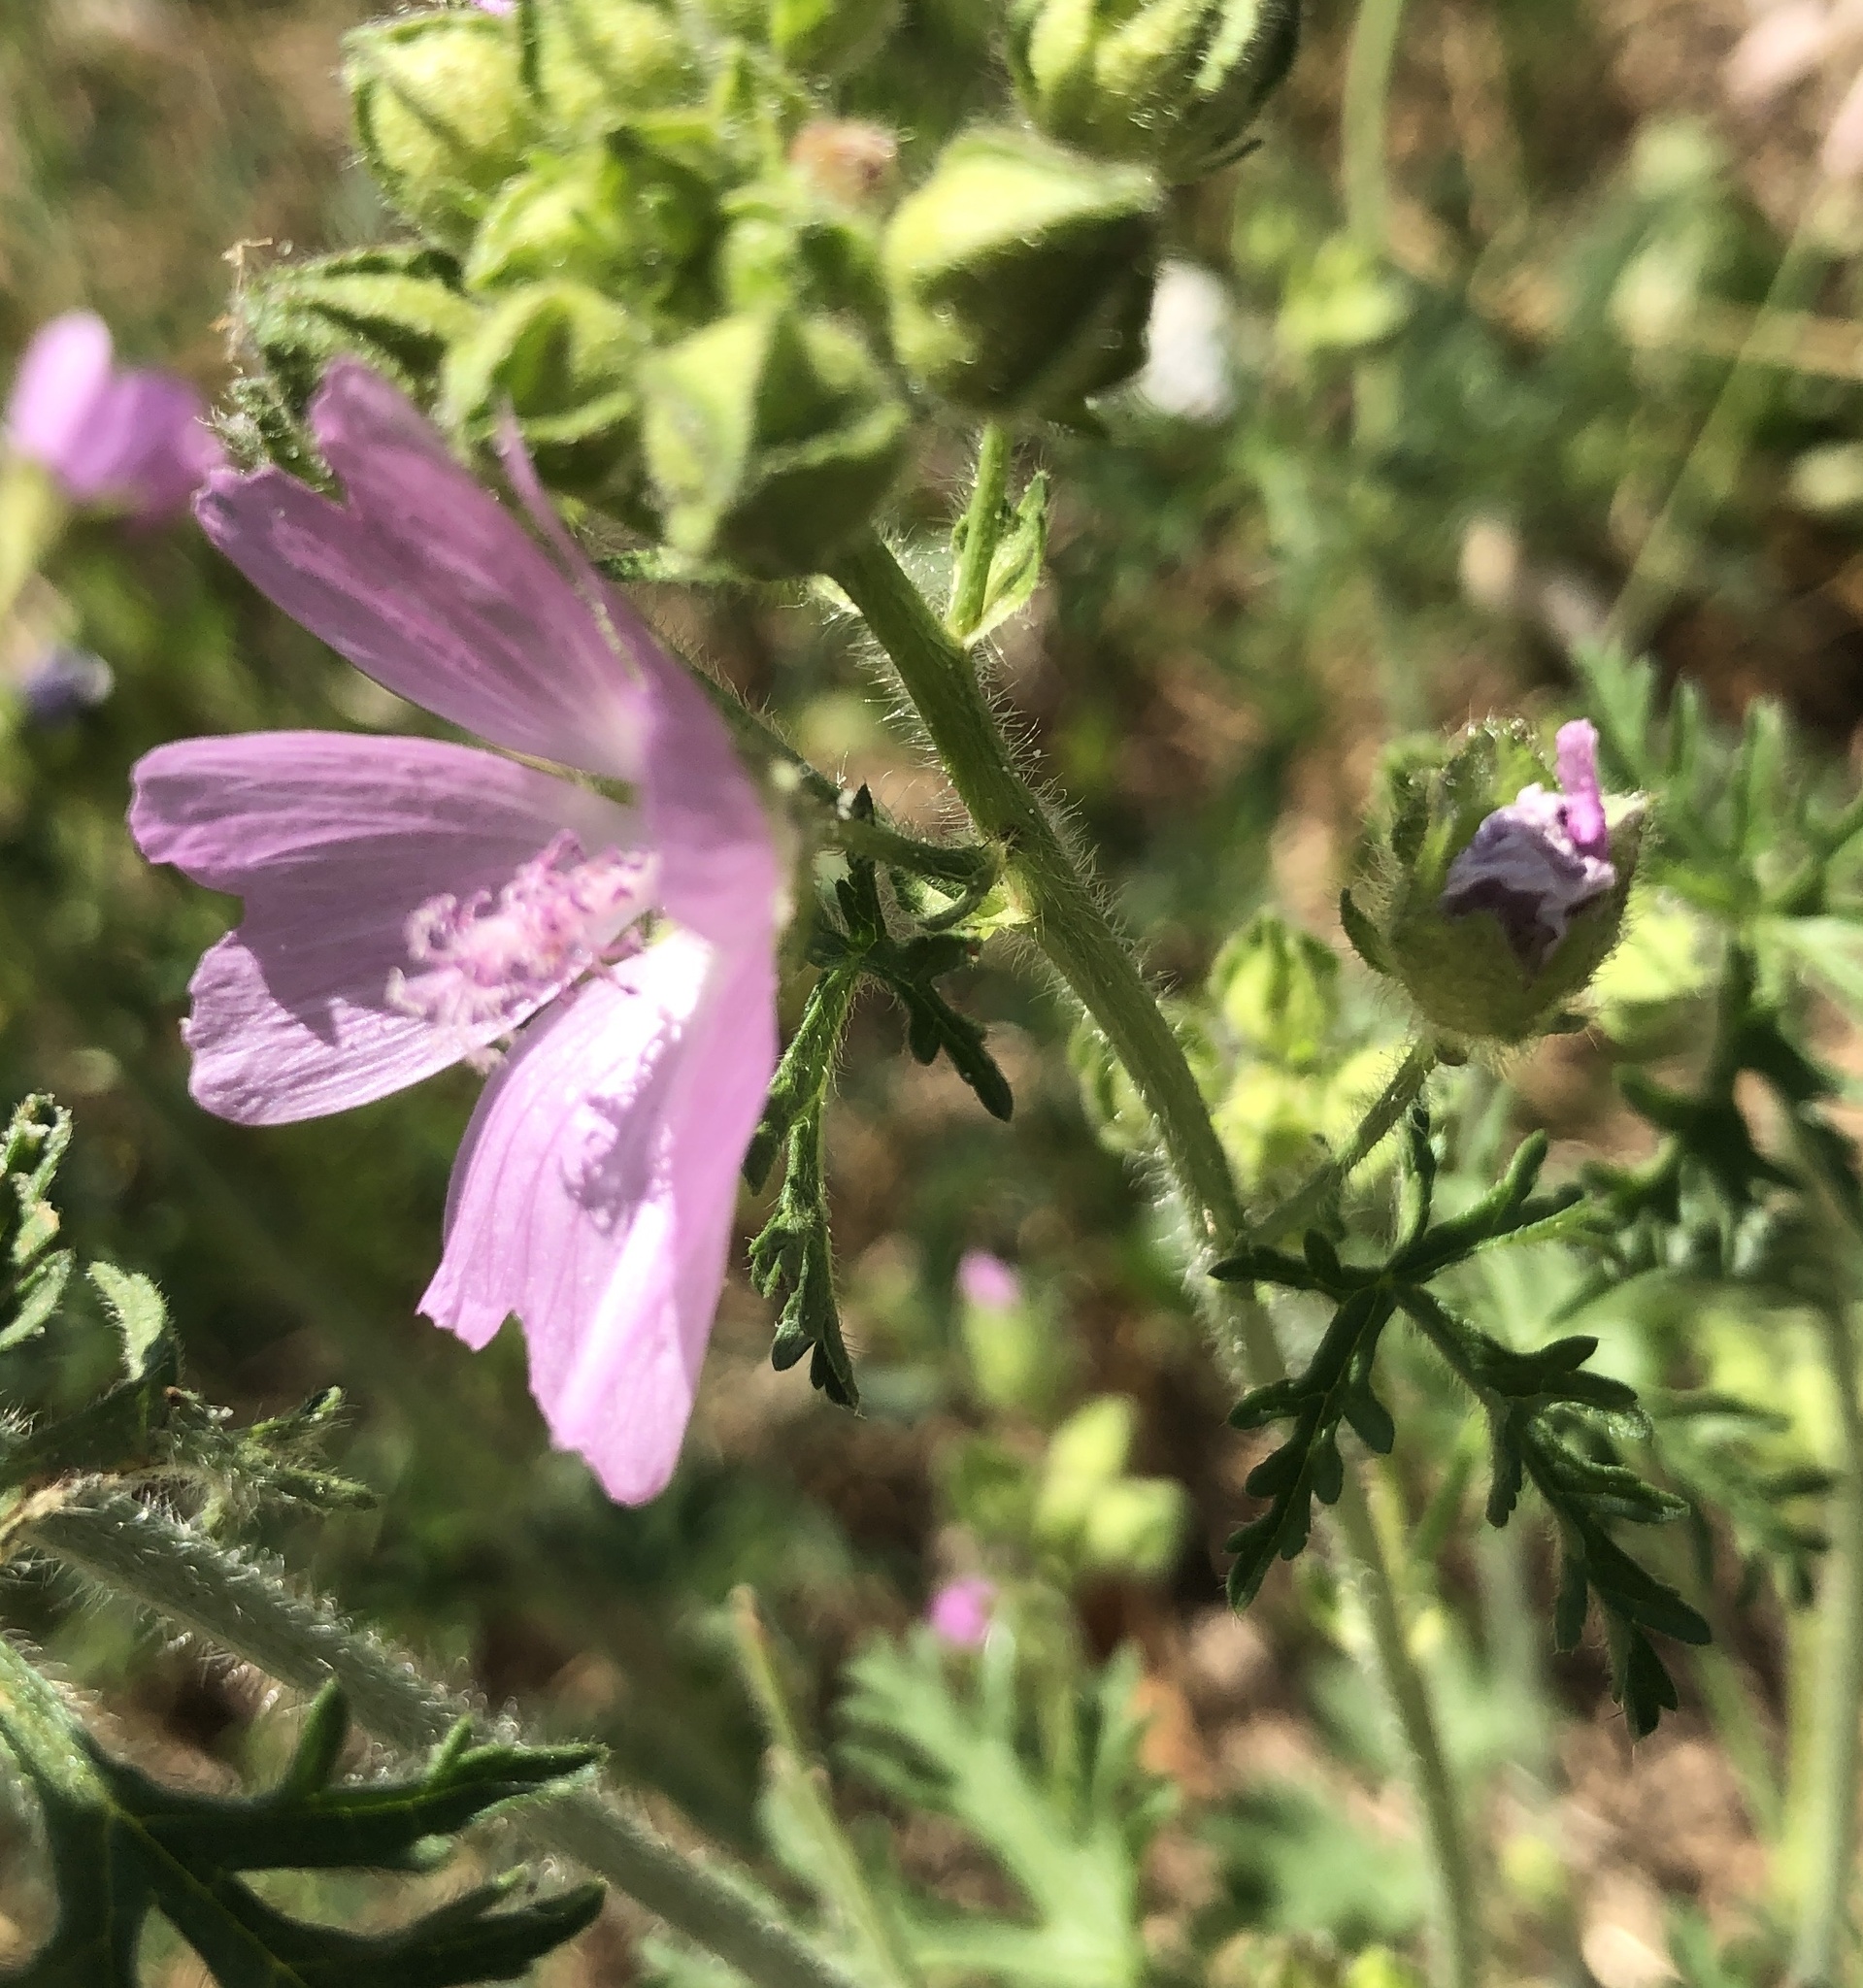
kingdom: Plantae
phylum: Tracheophyta
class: Magnoliopsida
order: Malvales
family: Malvaceae
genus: Malva
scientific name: Malva moschata
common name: Musk mallow
